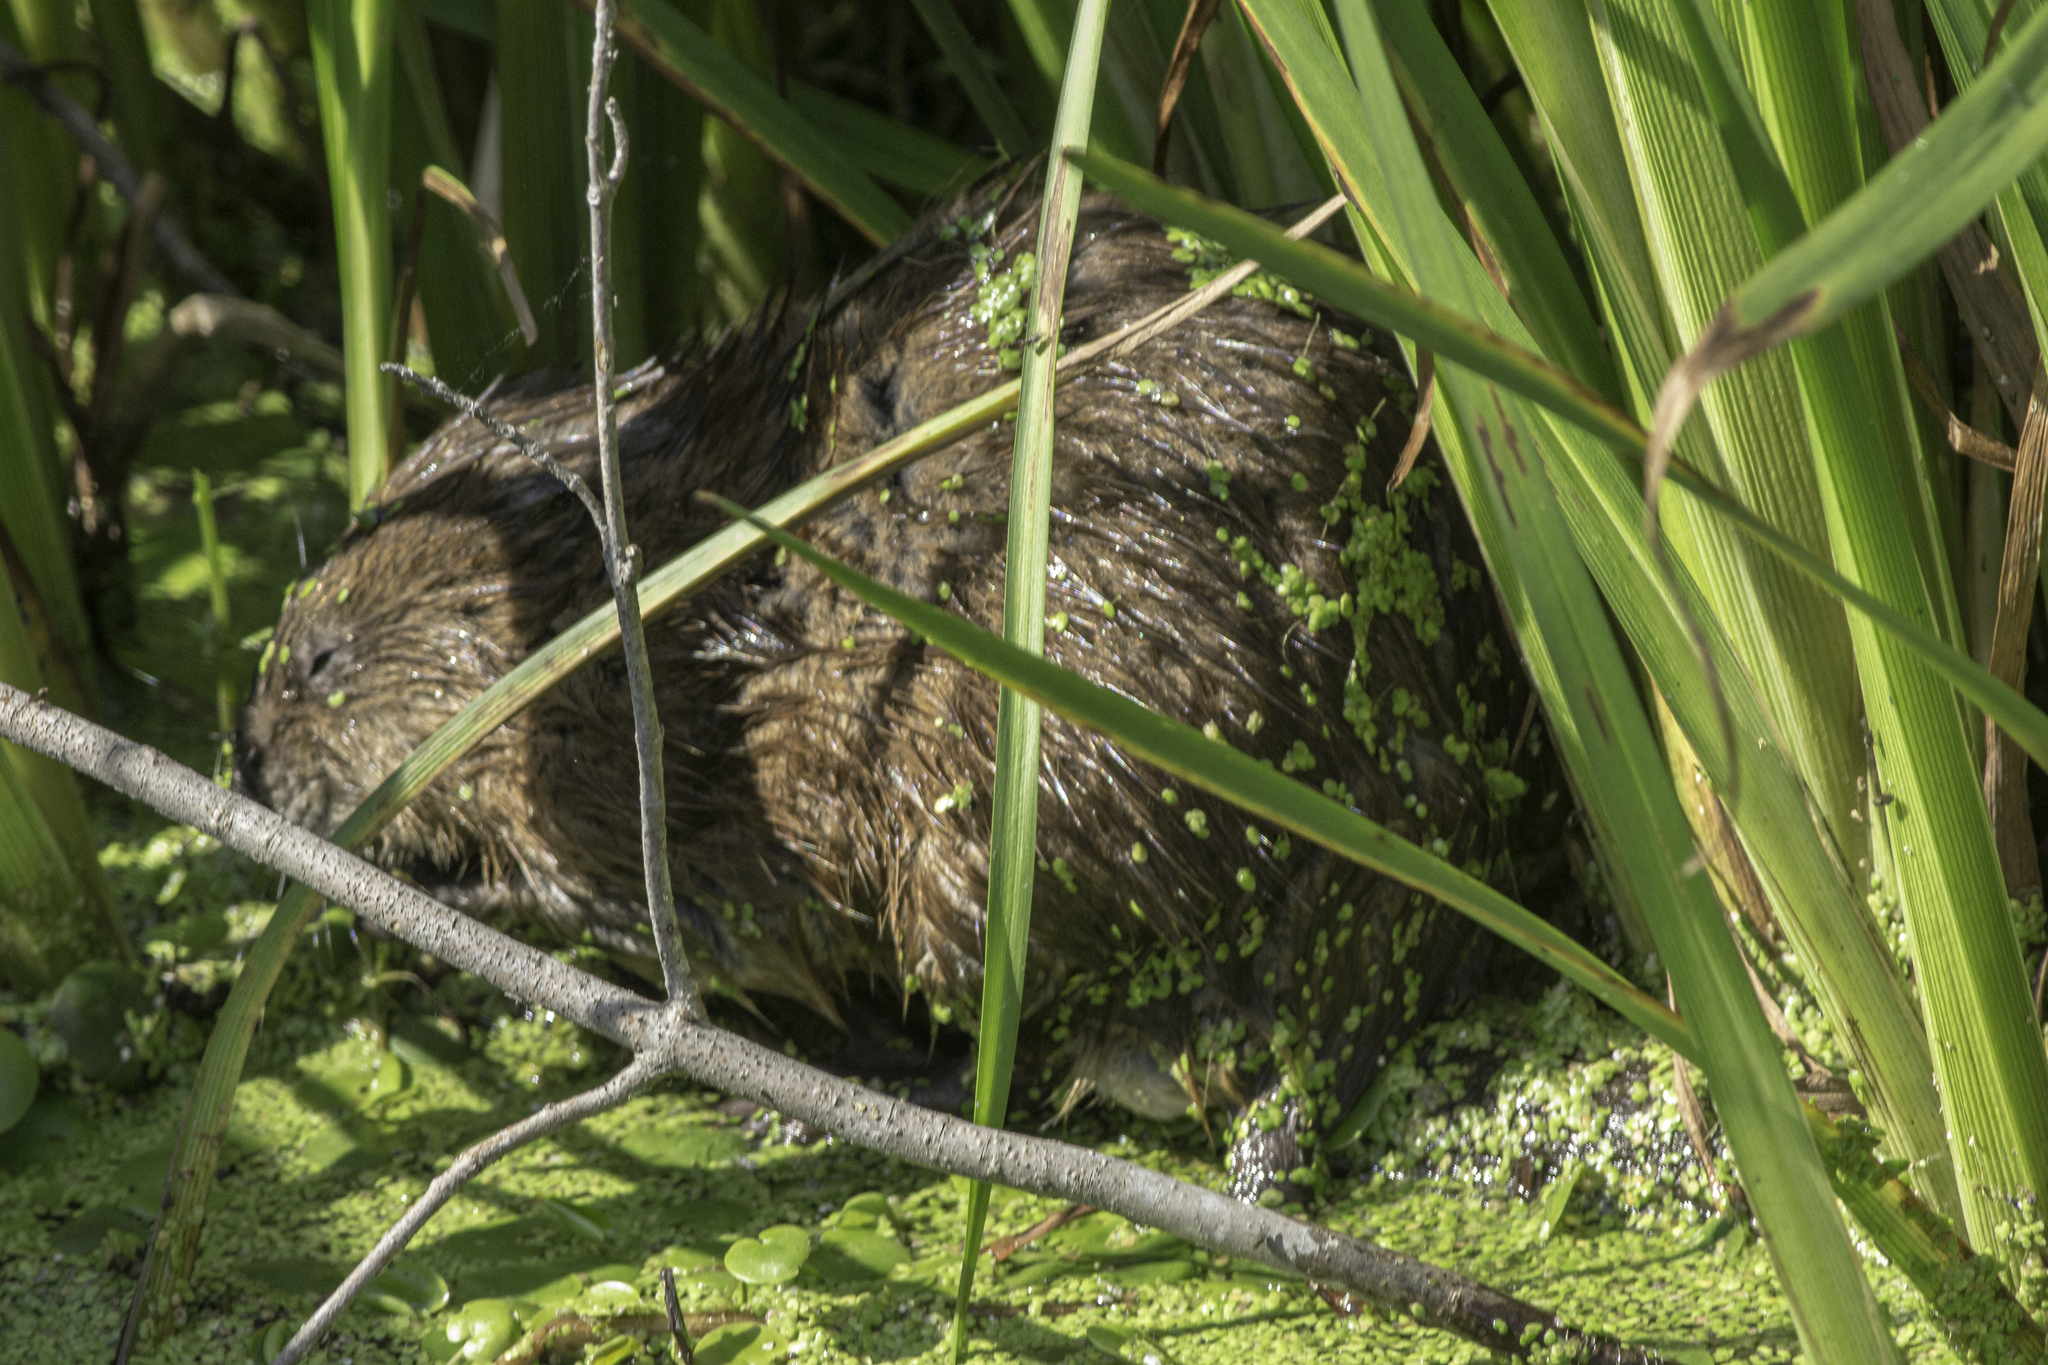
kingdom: Animalia
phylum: Chordata
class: Mammalia
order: Rodentia
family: Cricetidae
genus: Ondatra
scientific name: Ondatra zibethicus
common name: Muskrat
